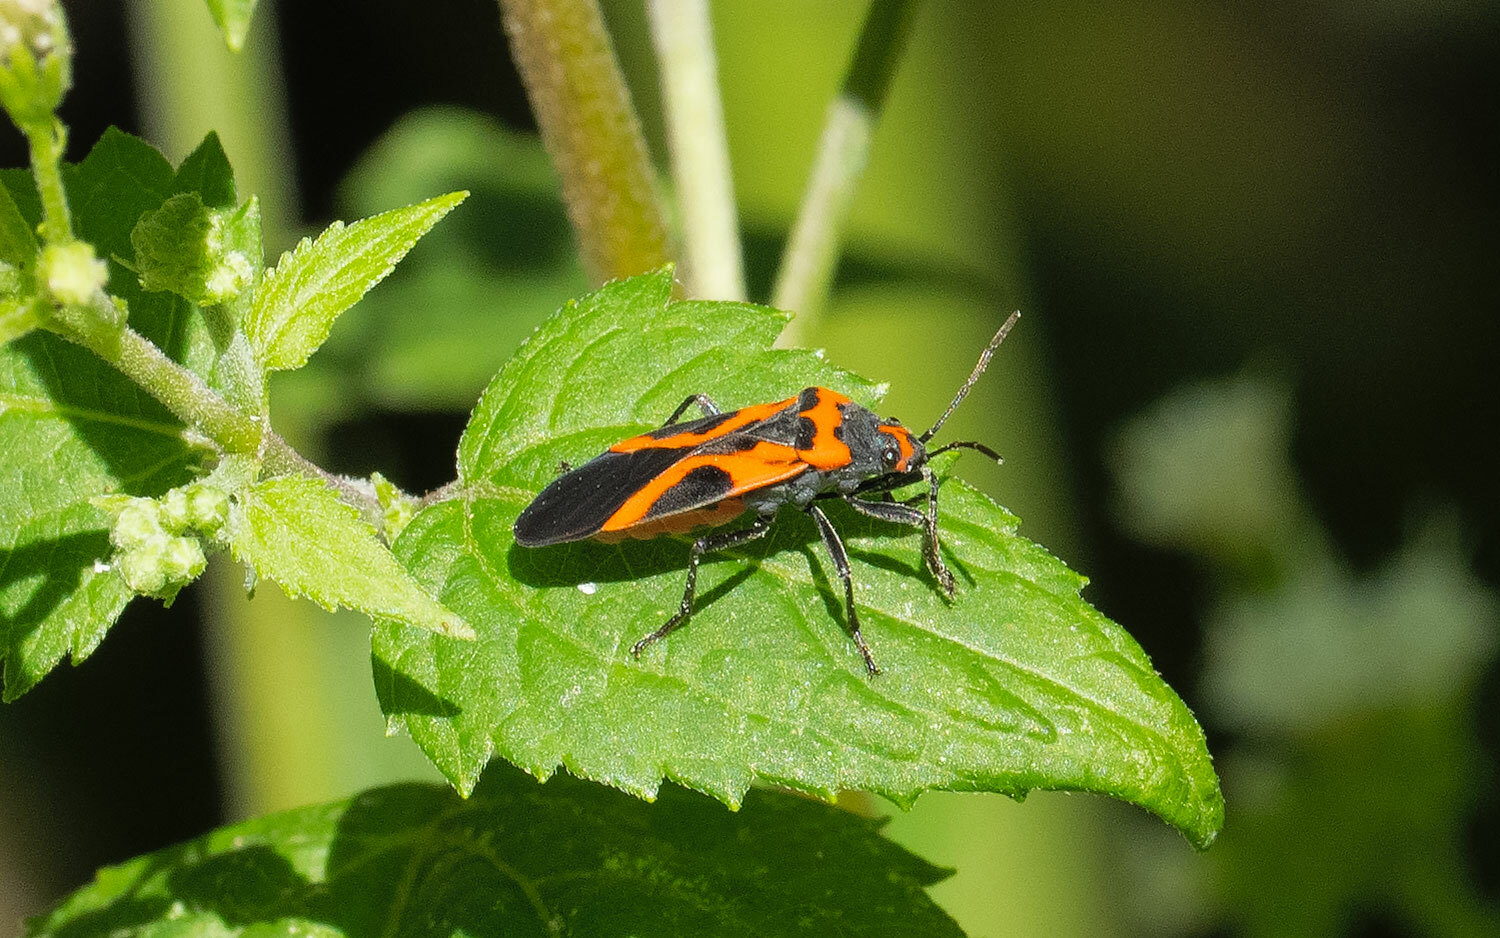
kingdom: Animalia
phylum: Arthropoda
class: Insecta
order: Hemiptera
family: Lygaeidae
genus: Lygaeus
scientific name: Lygaeus turcicus
